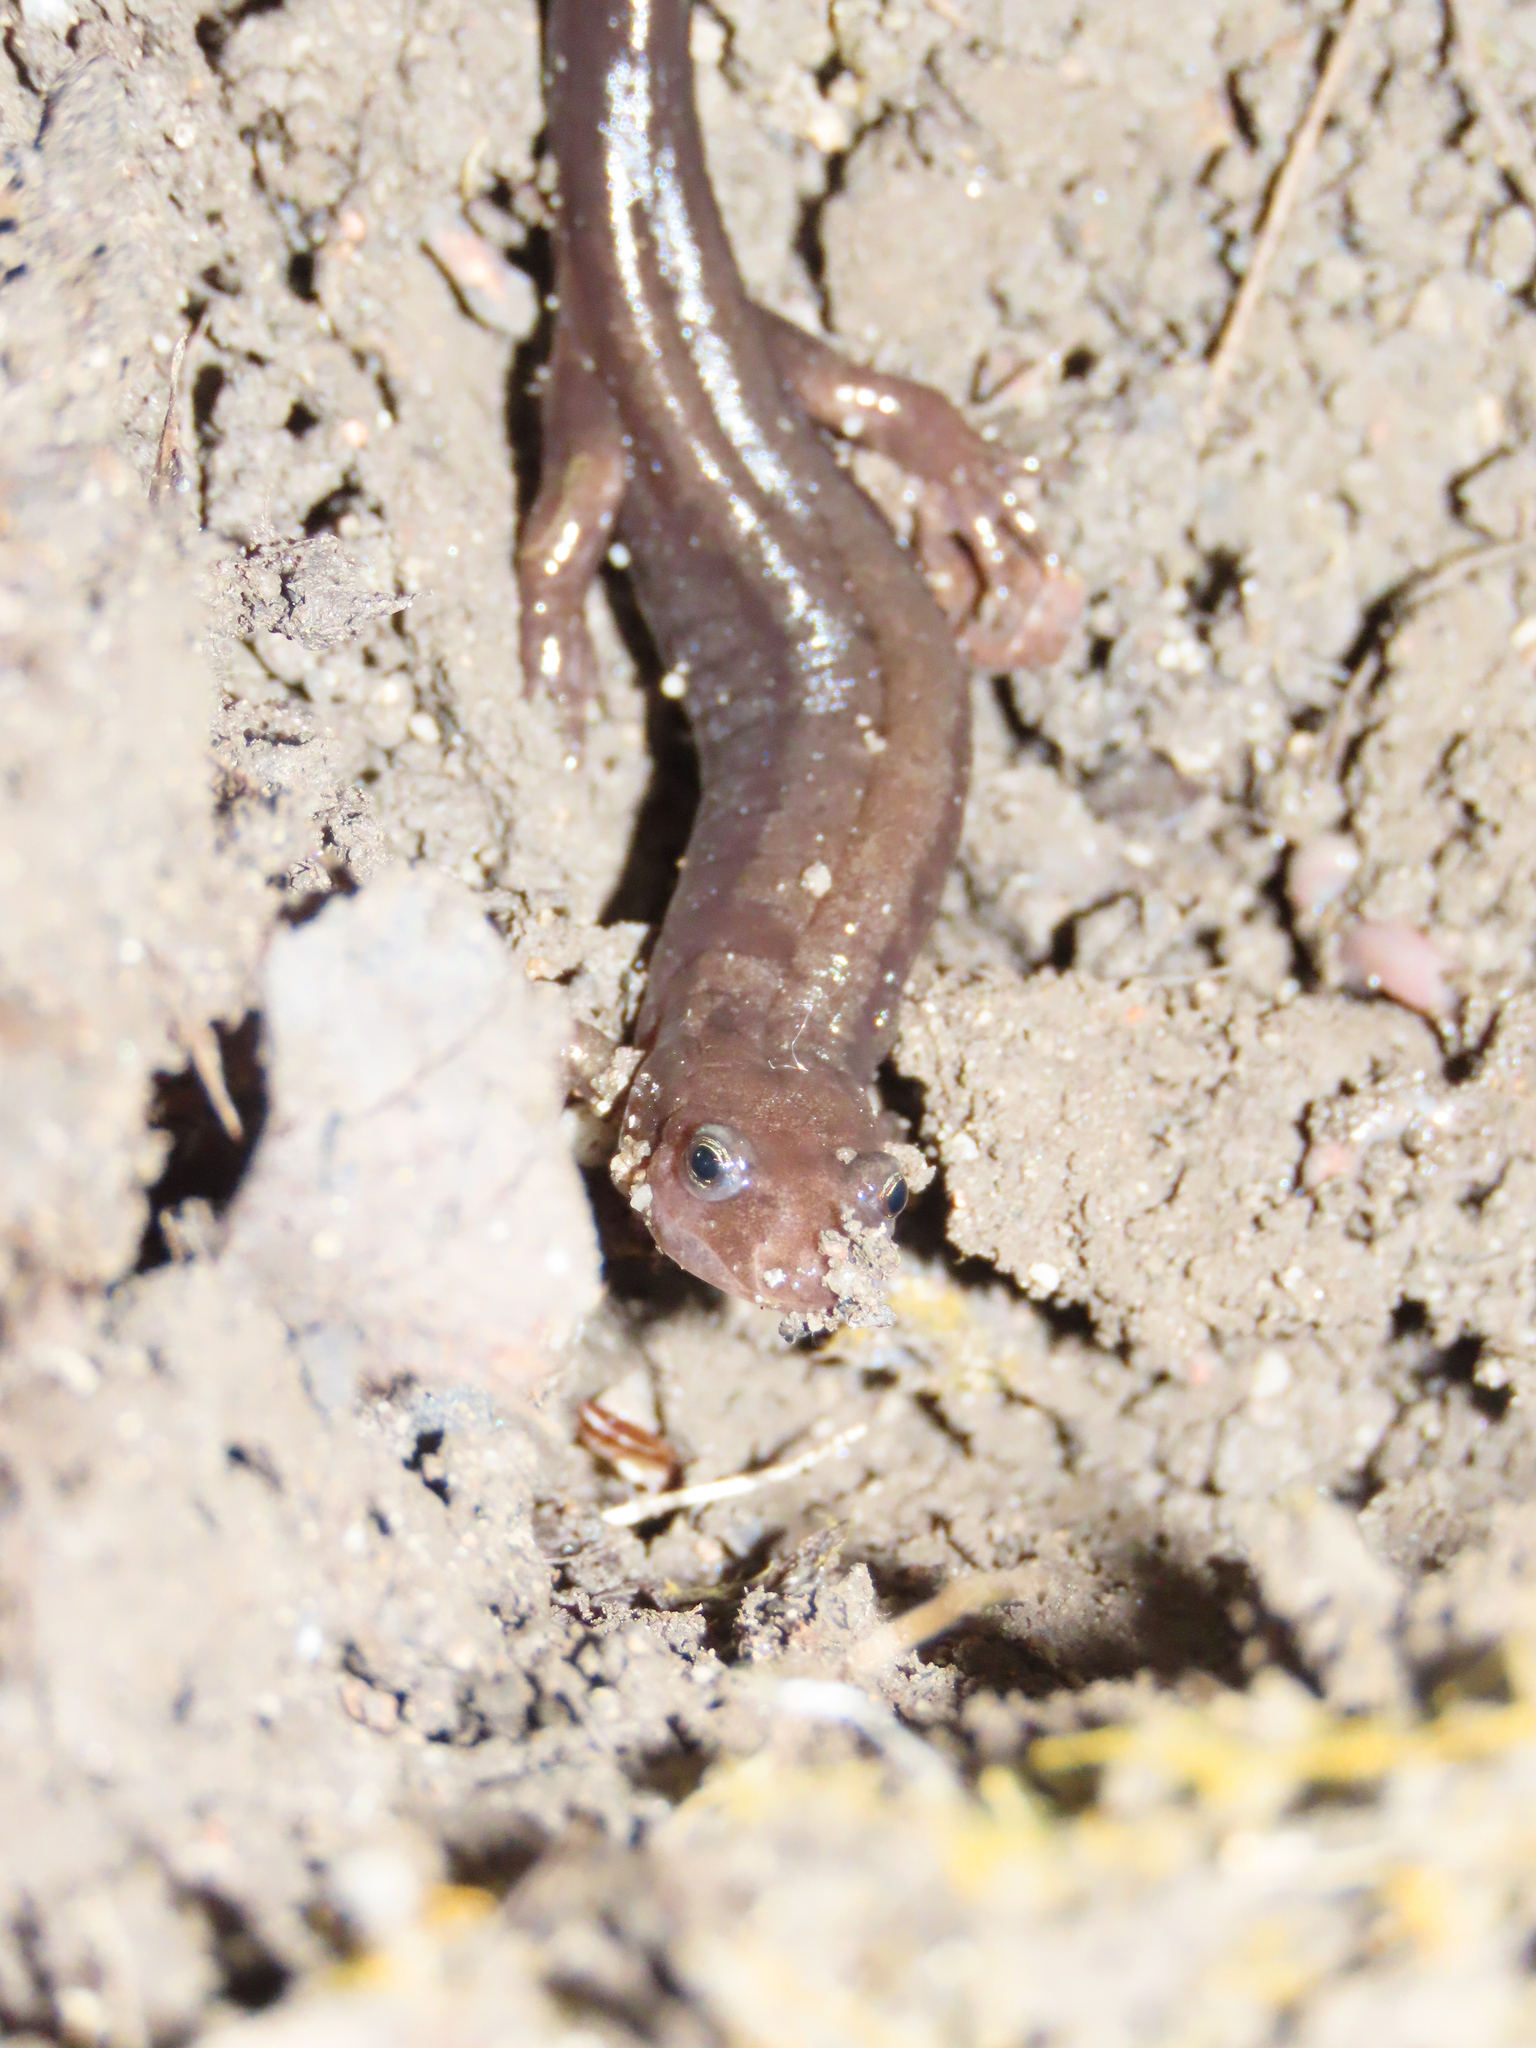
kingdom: Animalia
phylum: Chordata
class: Amphibia
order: Caudata
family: Plethodontidae
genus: Desmognathus
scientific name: Desmognathus ochrophaeus
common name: Allegheny mountain dusky salamander
